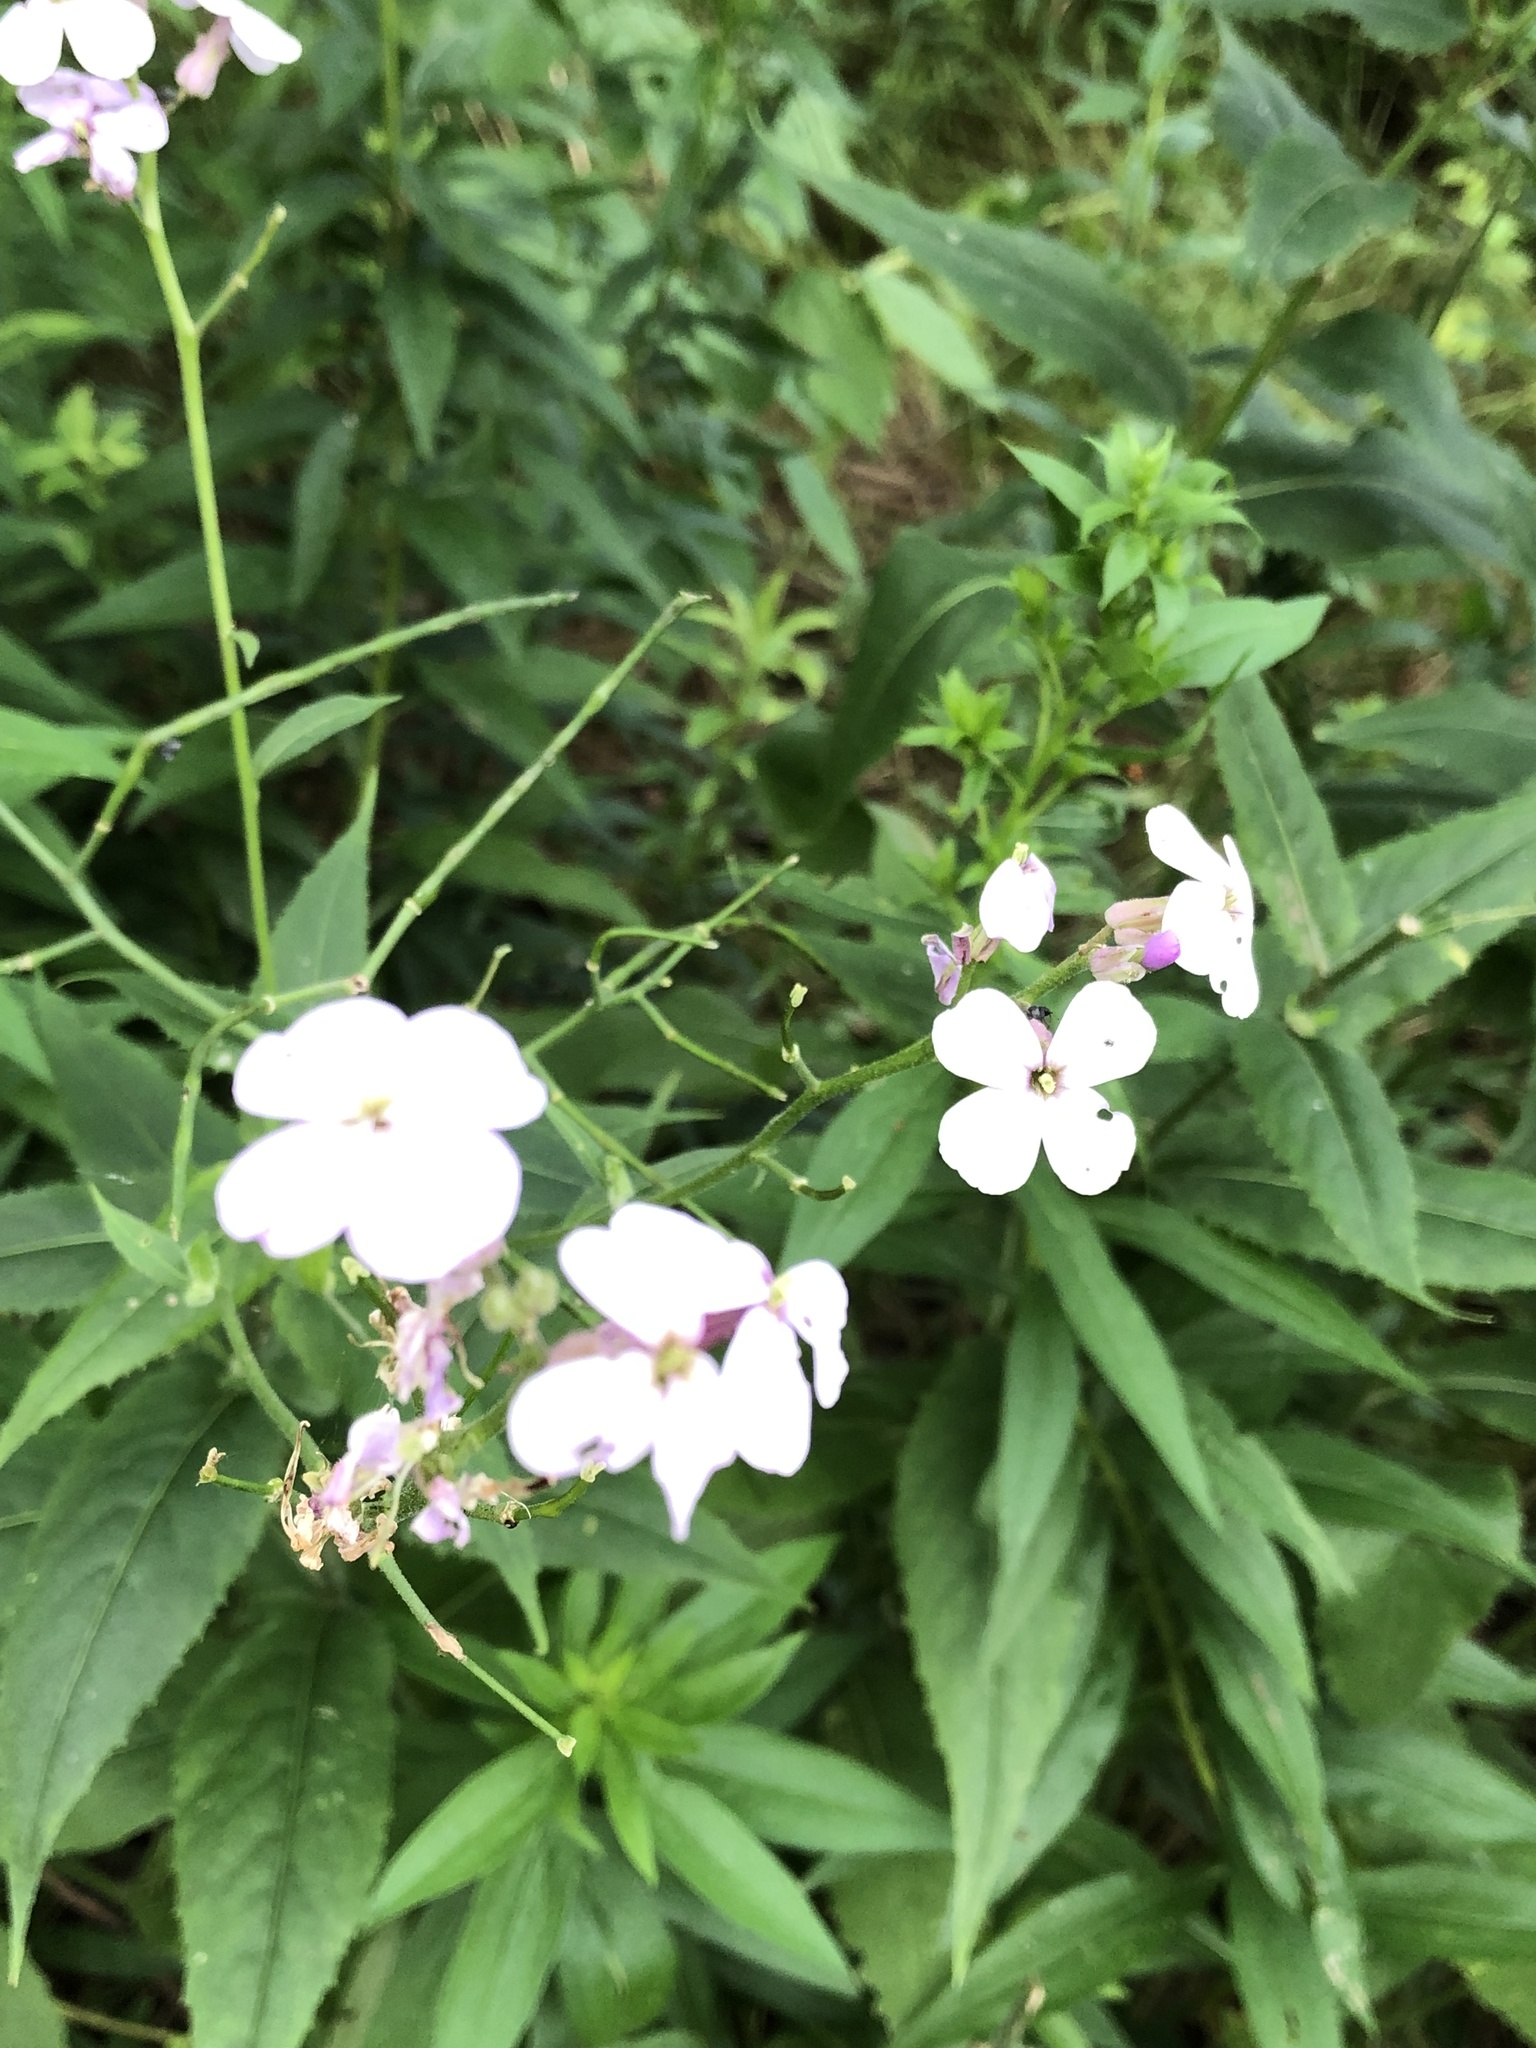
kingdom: Plantae
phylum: Tracheophyta
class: Magnoliopsida
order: Brassicales
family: Brassicaceae
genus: Hesperis
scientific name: Hesperis matronalis
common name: Dame's-violet
